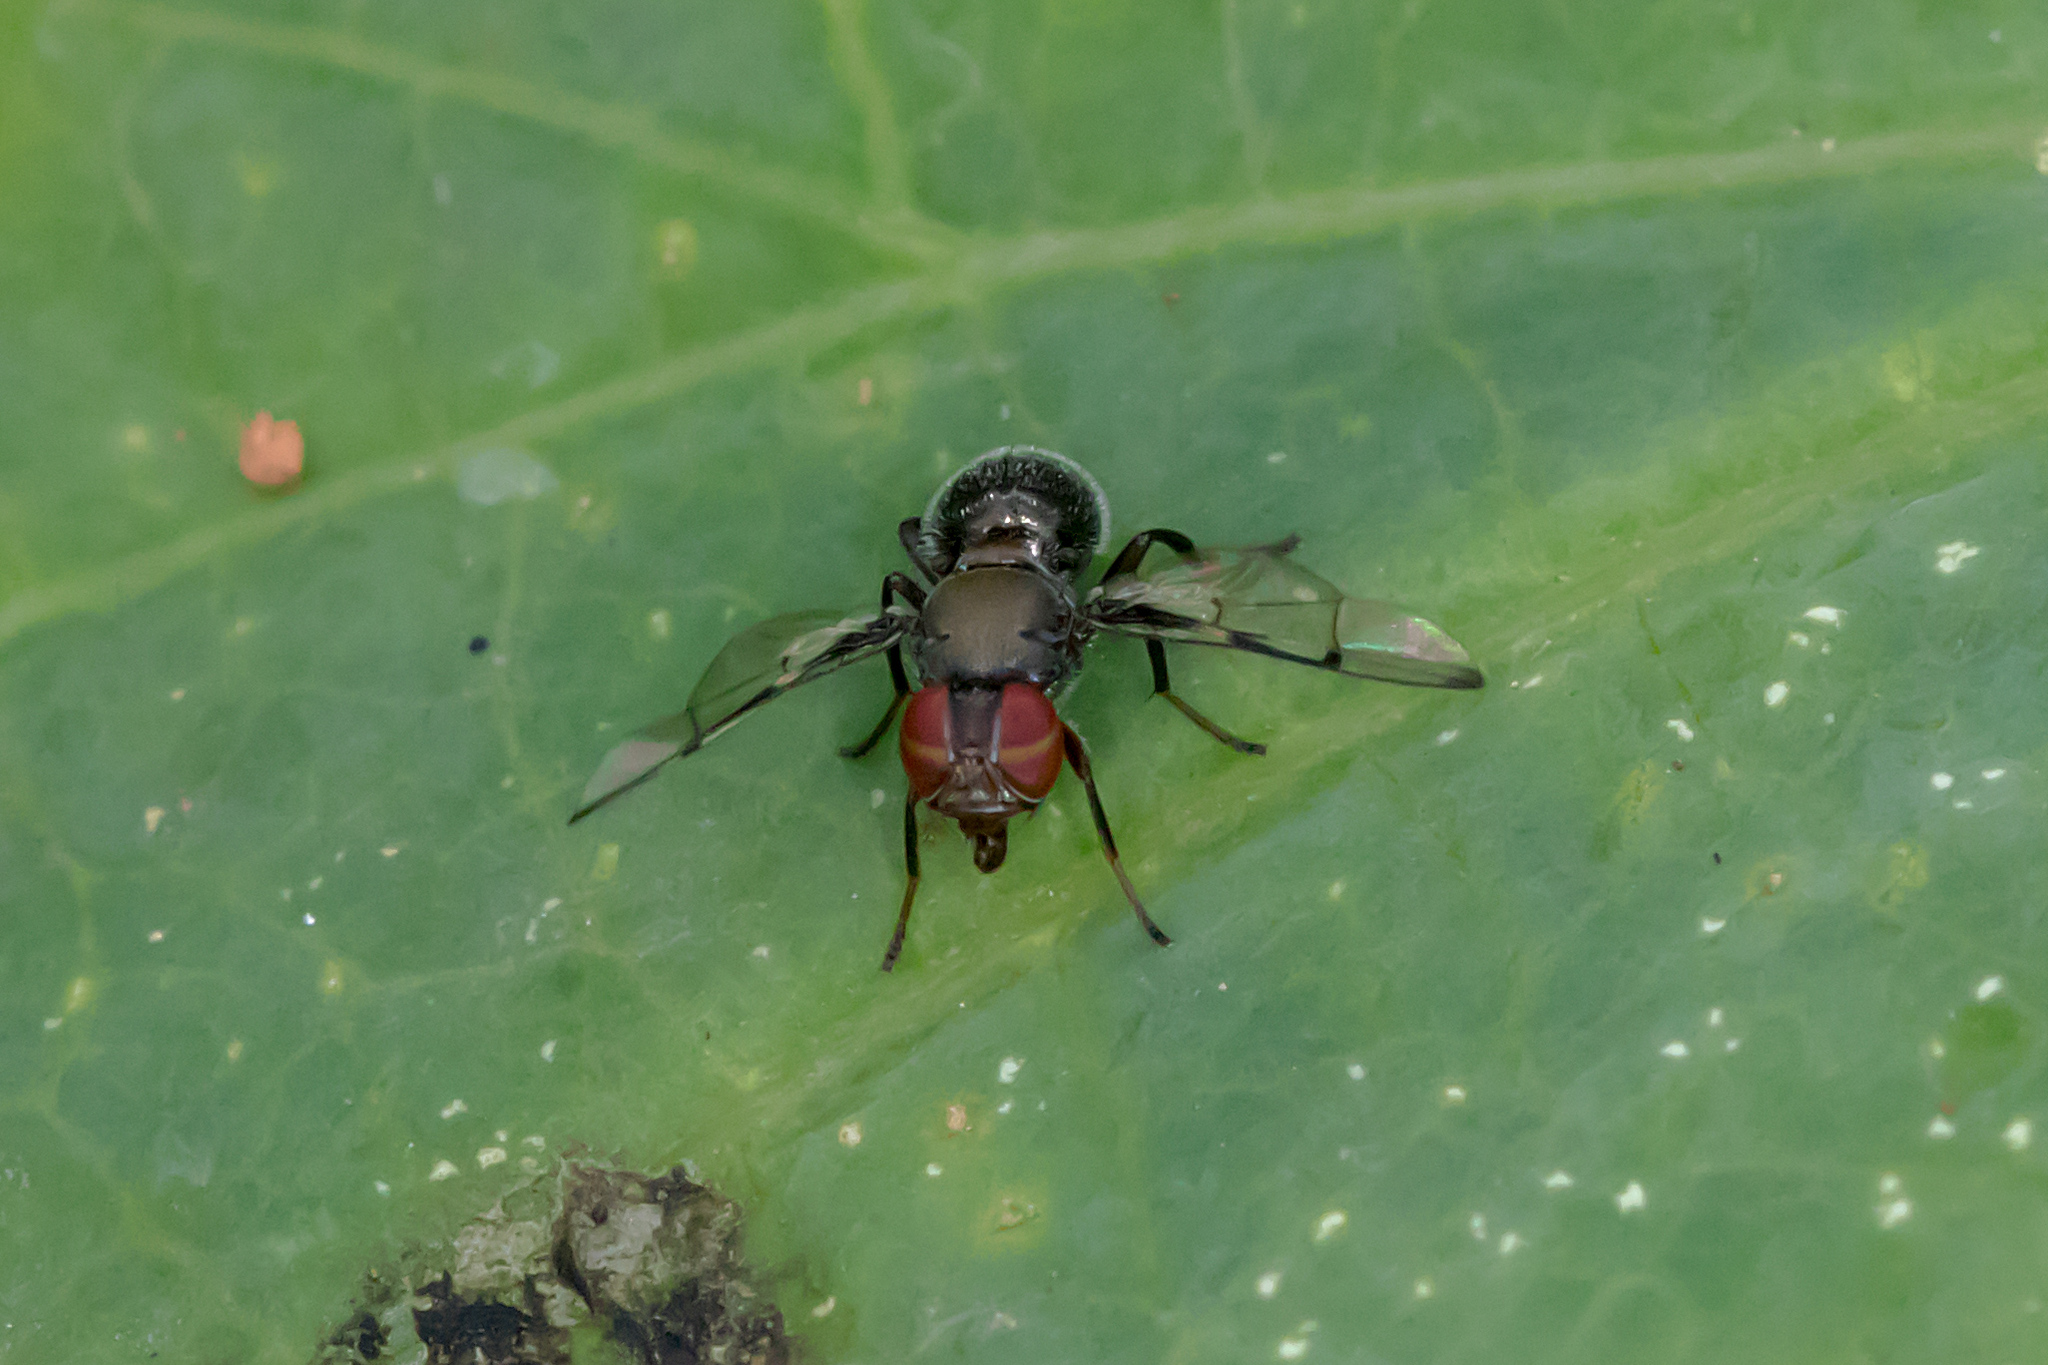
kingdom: Animalia
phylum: Arthropoda
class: Insecta
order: Diptera
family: Platystomatidae
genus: Pogonortalis
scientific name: Pogonortalis doclea
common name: Boatman fly
